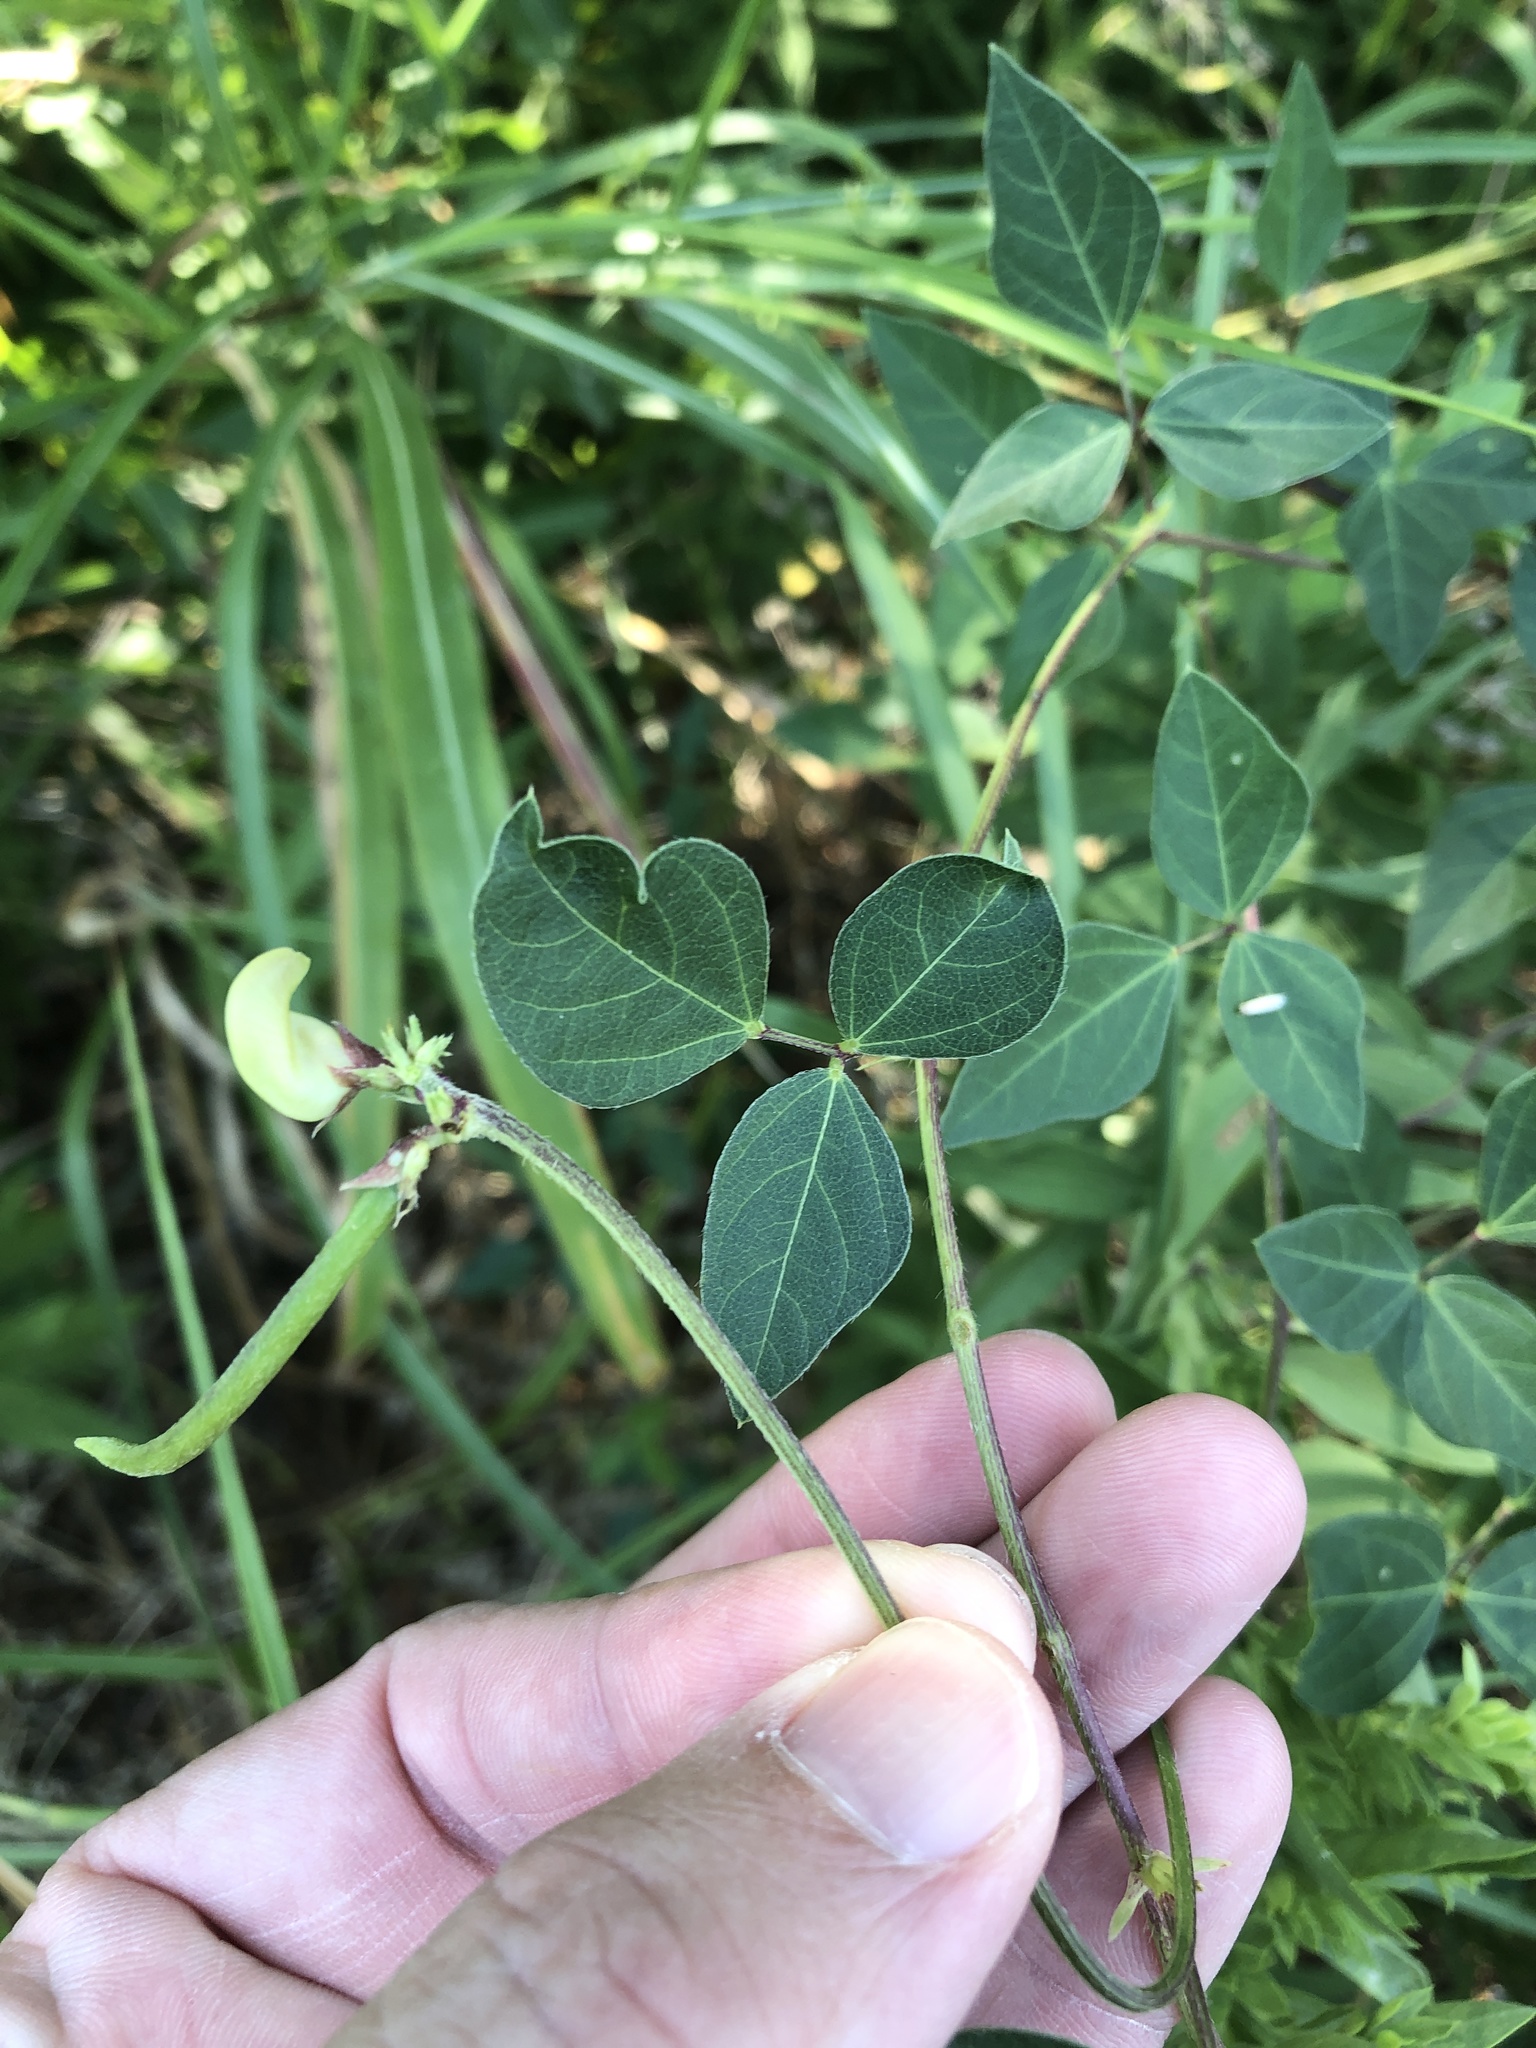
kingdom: Plantae
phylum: Tracheophyta
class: Magnoliopsida
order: Fabales
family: Fabaceae
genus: Strophostyles
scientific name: Strophostyles helvola
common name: Trailing wild bean
